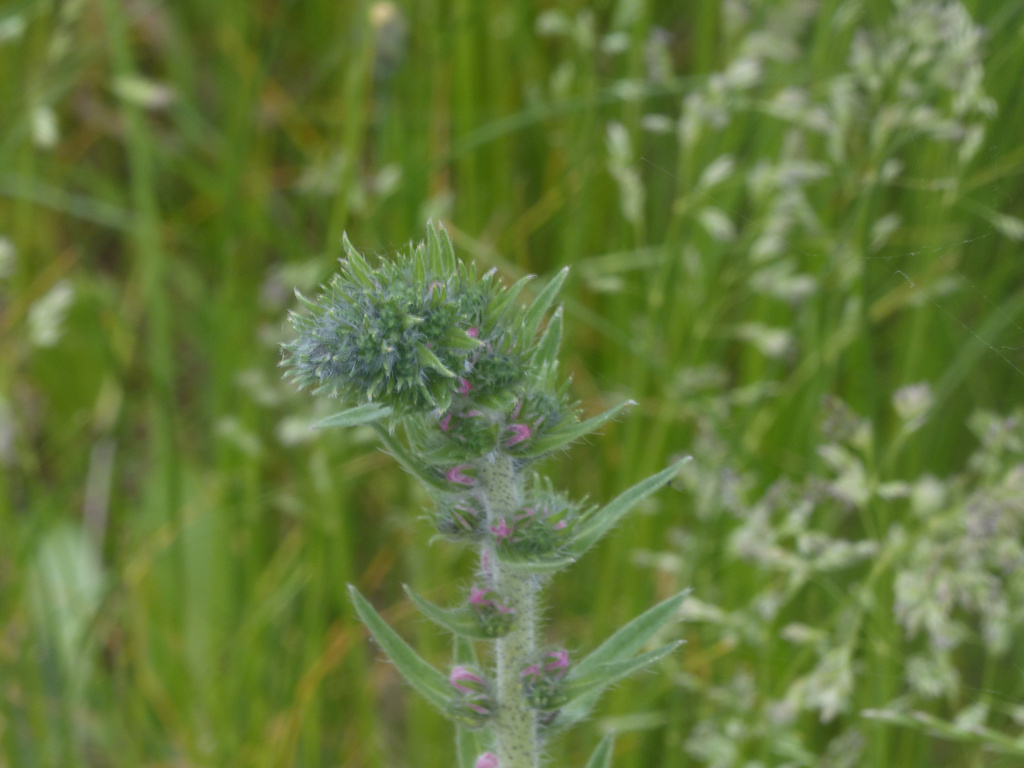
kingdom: Plantae
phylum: Tracheophyta
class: Magnoliopsida
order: Boraginales
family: Boraginaceae
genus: Echium
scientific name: Echium vulgare
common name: Common viper's bugloss
